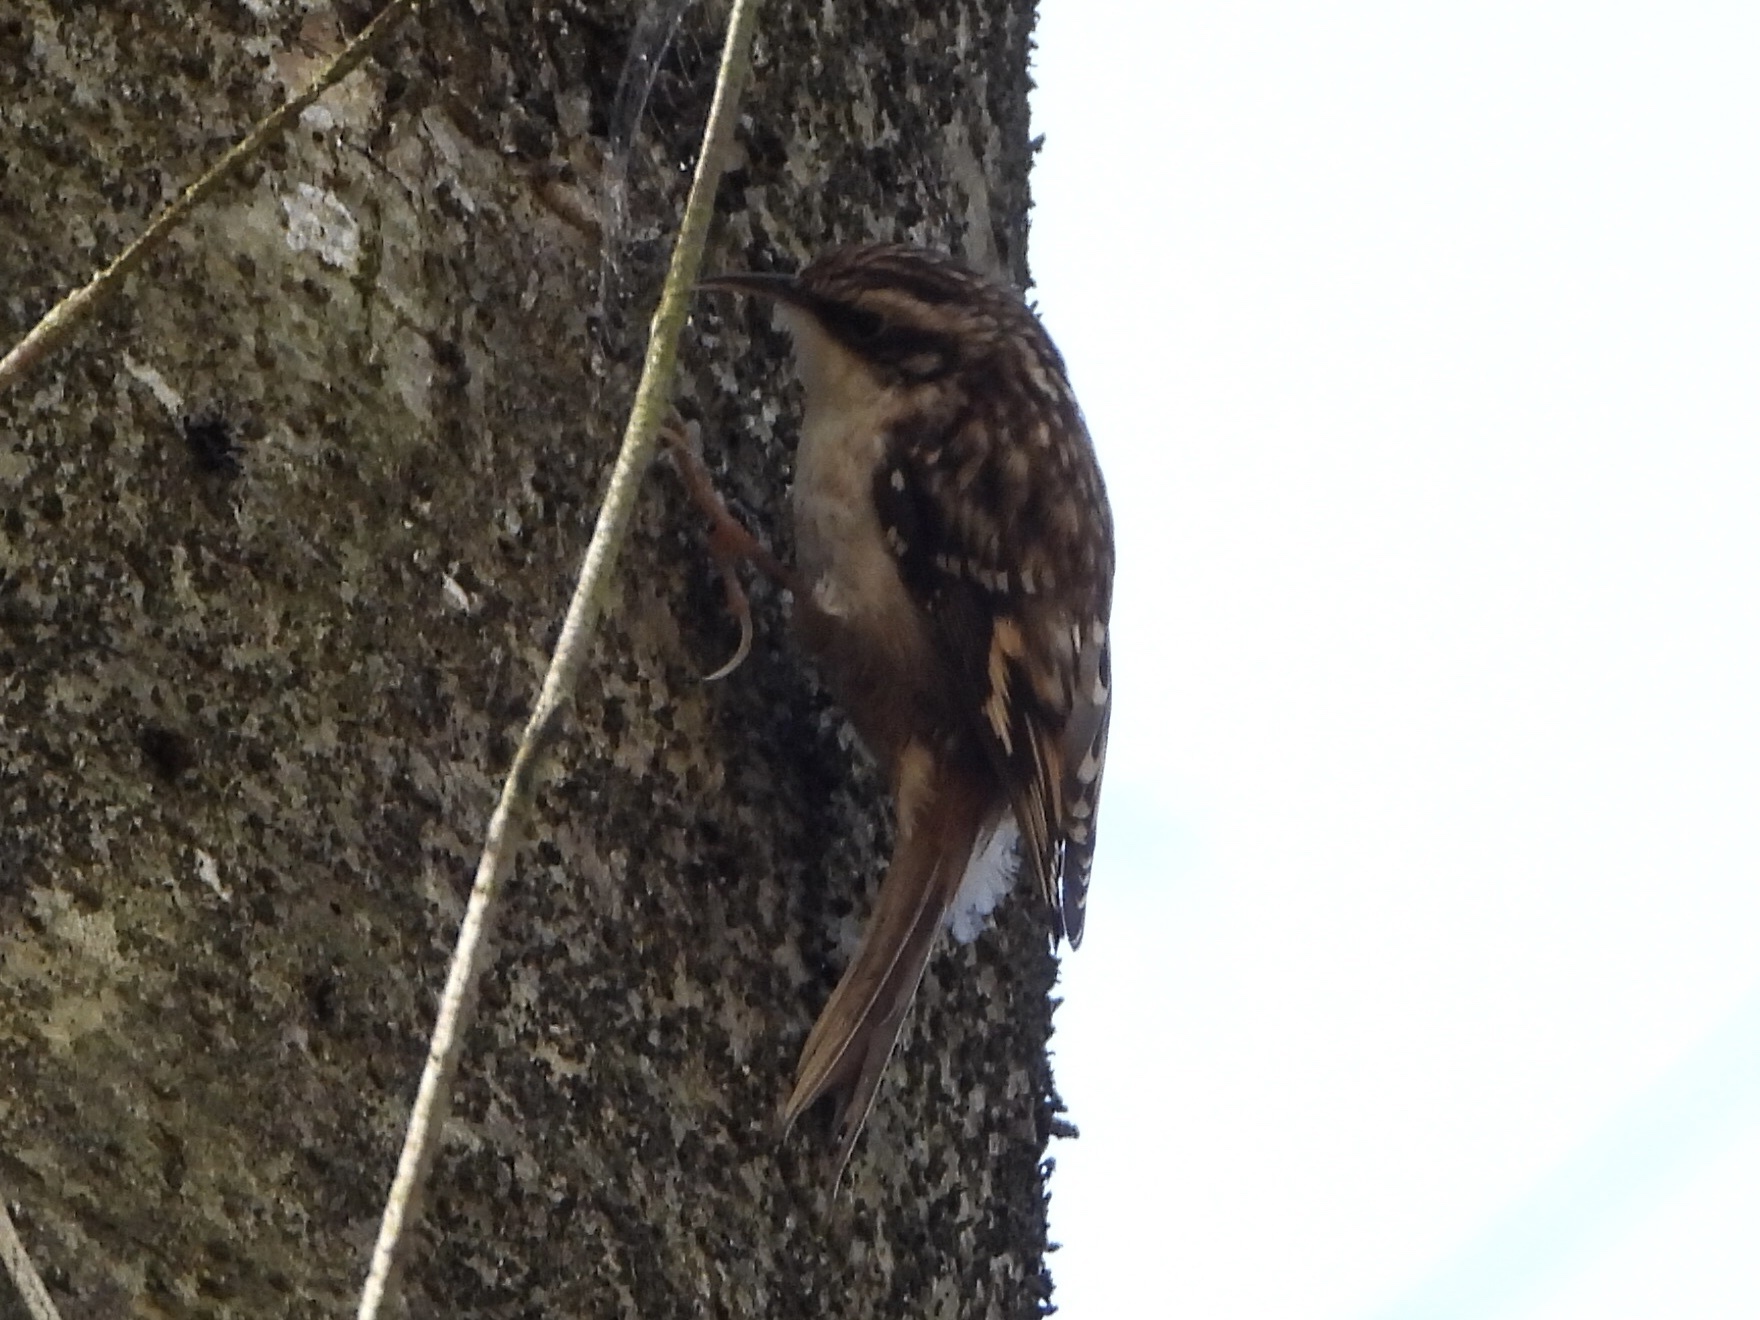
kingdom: Animalia
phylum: Chordata
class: Aves
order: Passeriformes
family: Certhiidae
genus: Certhia
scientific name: Certhia americana
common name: Brown creeper
